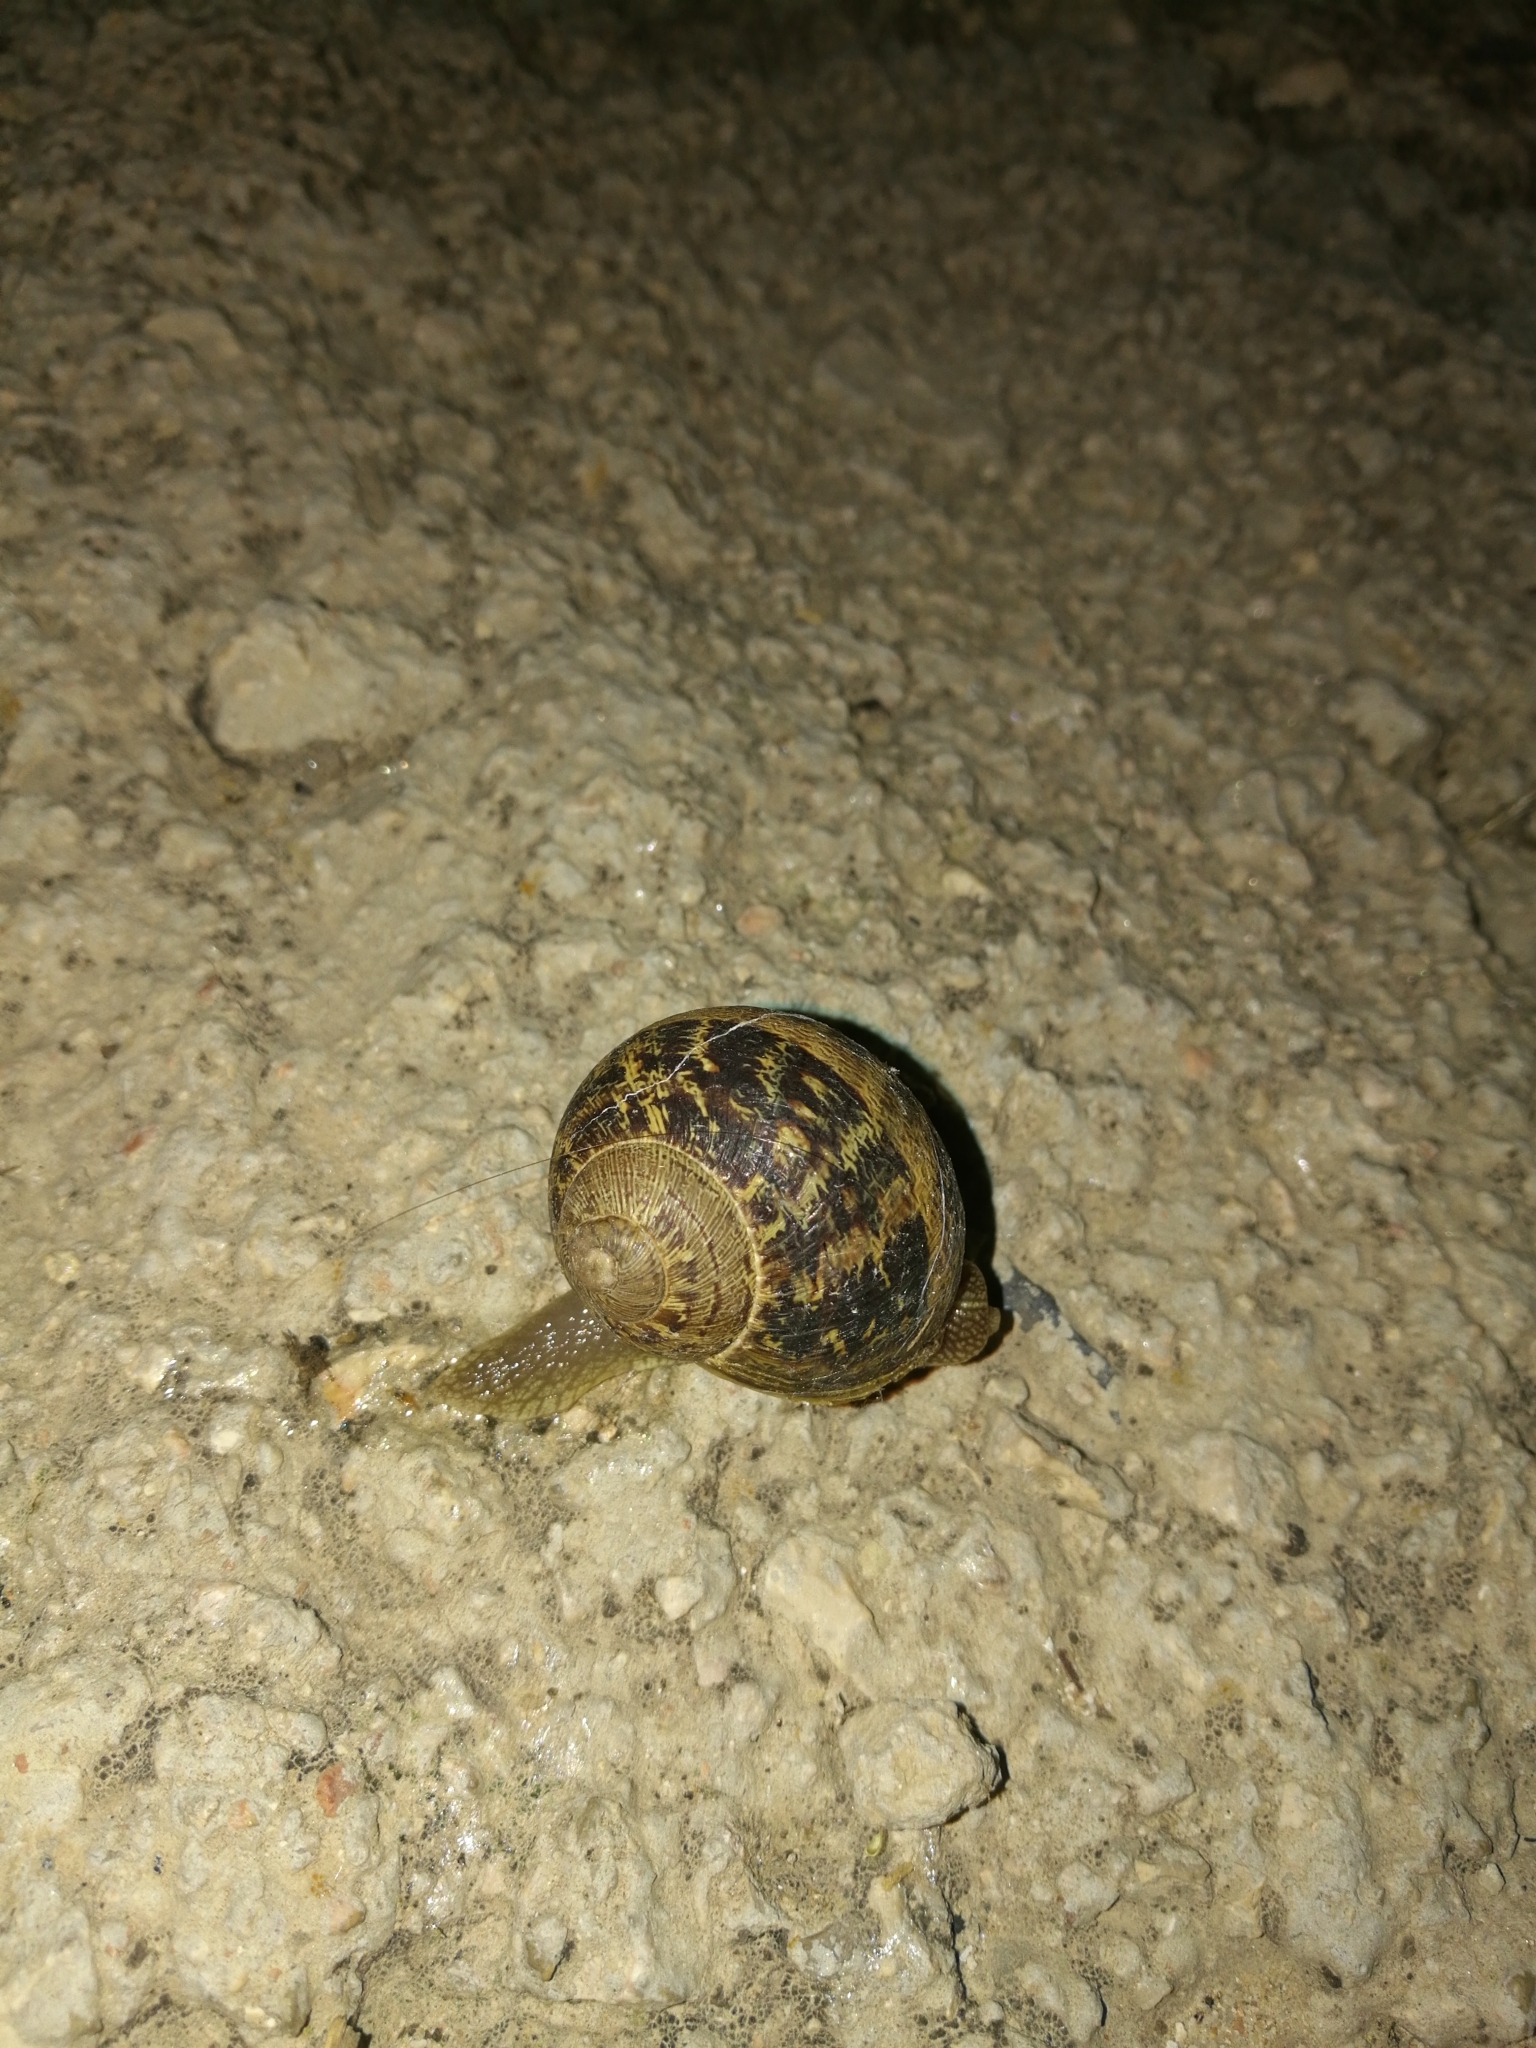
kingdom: Animalia
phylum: Mollusca
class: Gastropoda
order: Stylommatophora
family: Helicidae
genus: Cornu
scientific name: Cornu aspersum
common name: Brown garden snail
